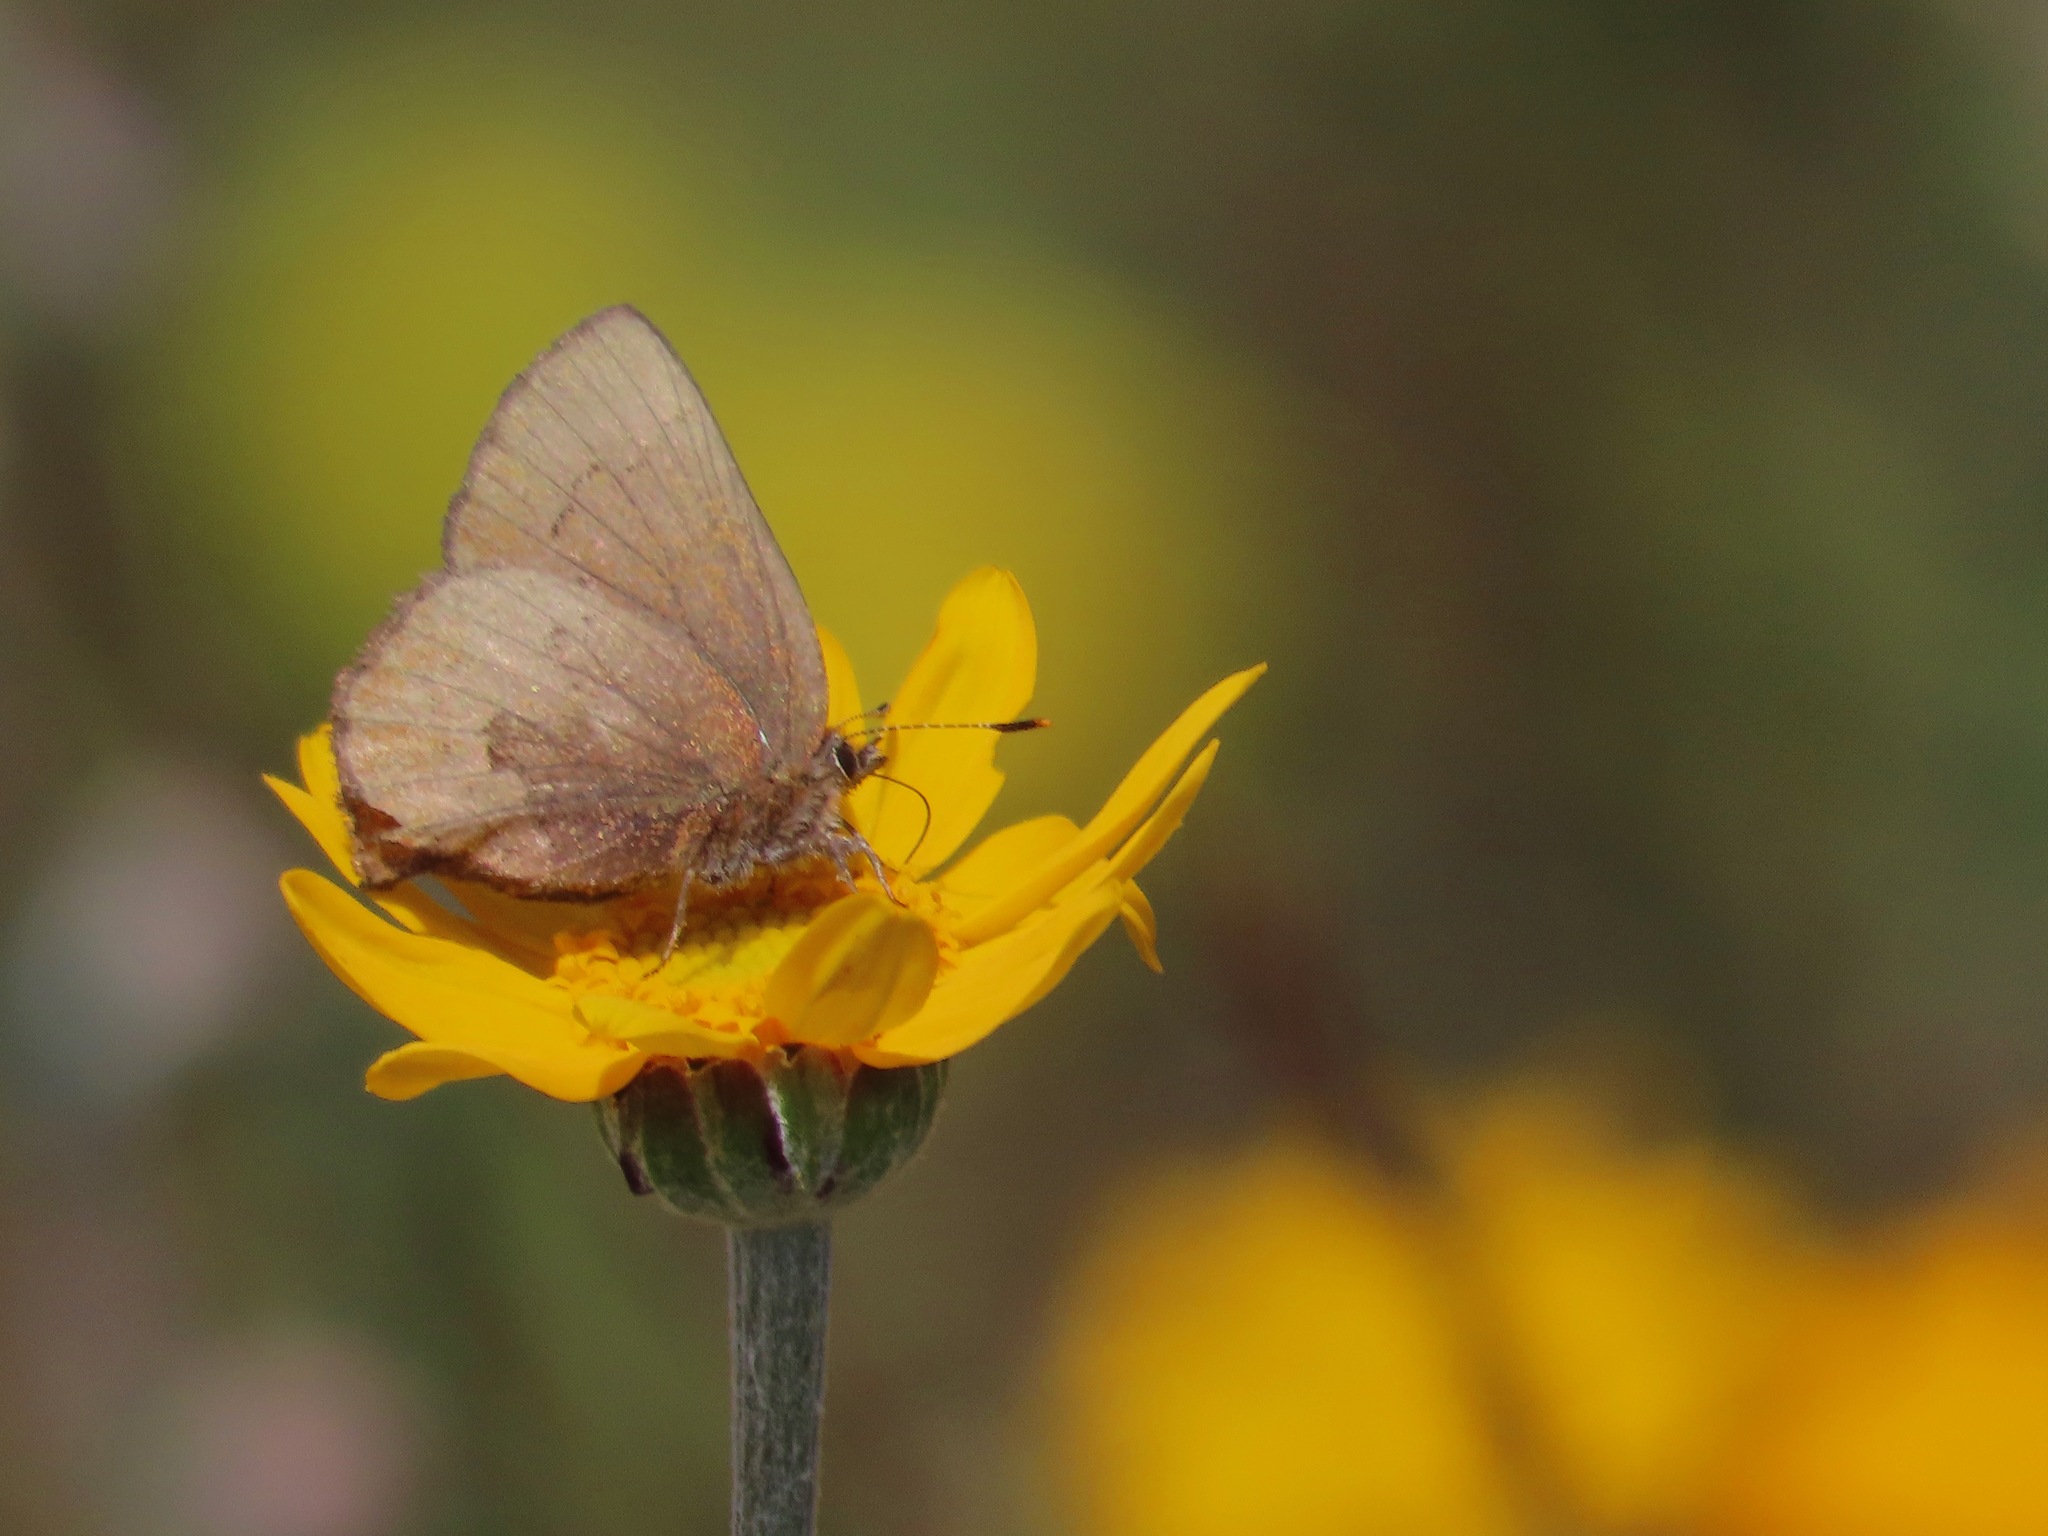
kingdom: Animalia
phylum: Arthropoda
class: Insecta
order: Lepidoptera
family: Lycaenidae
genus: Incisalia
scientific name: Incisalia irioides
